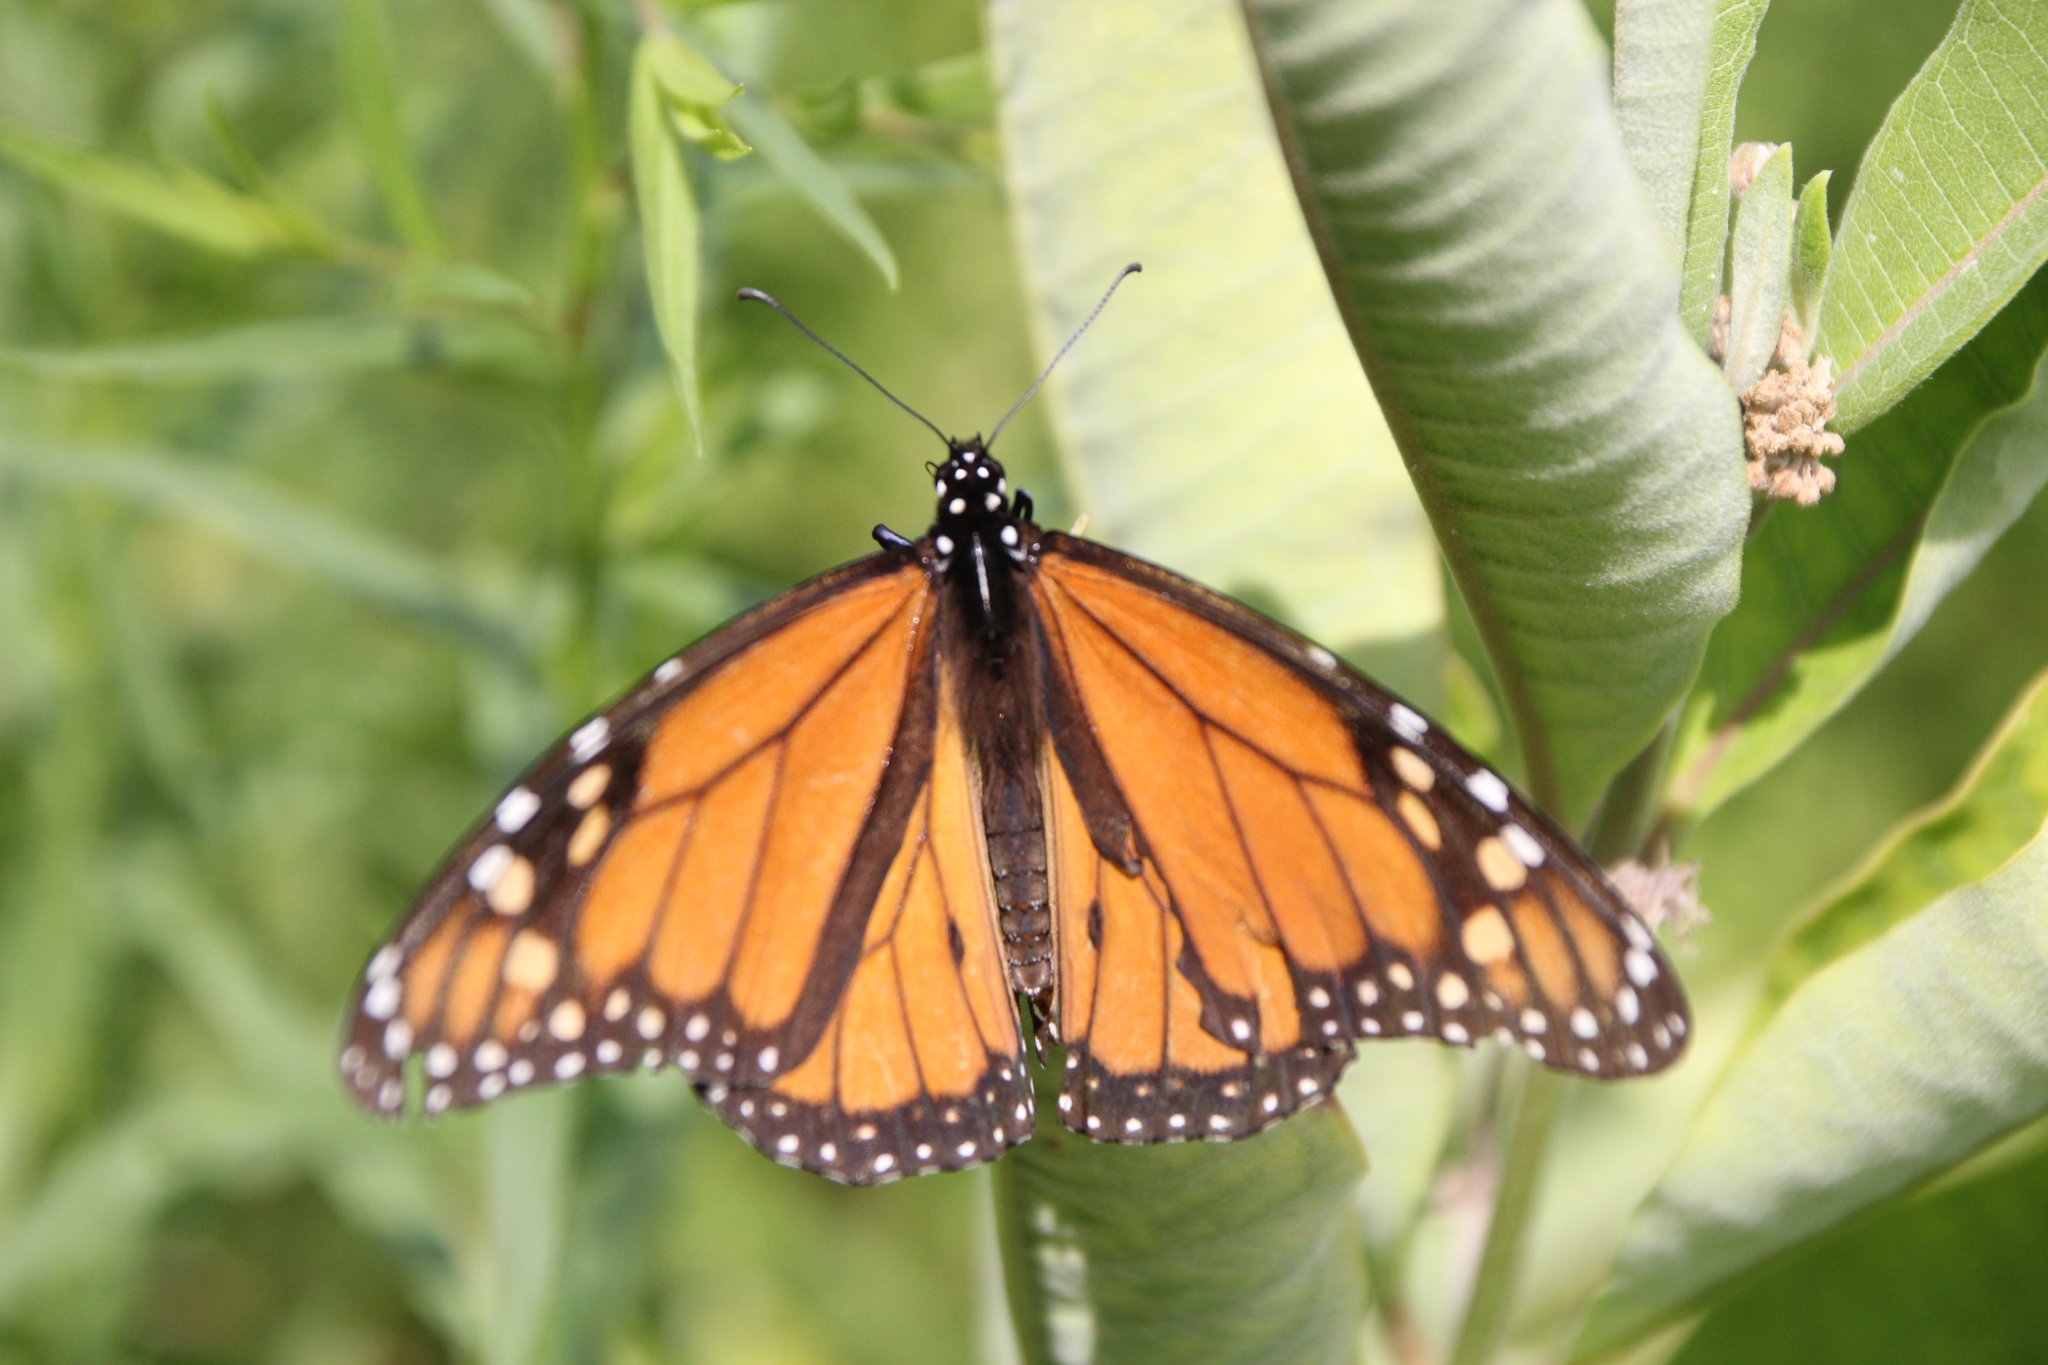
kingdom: Animalia
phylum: Arthropoda
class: Insecta
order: Lepidoptera
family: Nymphalidae
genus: Danaus
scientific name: Danaus plexippus
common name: Monarch
